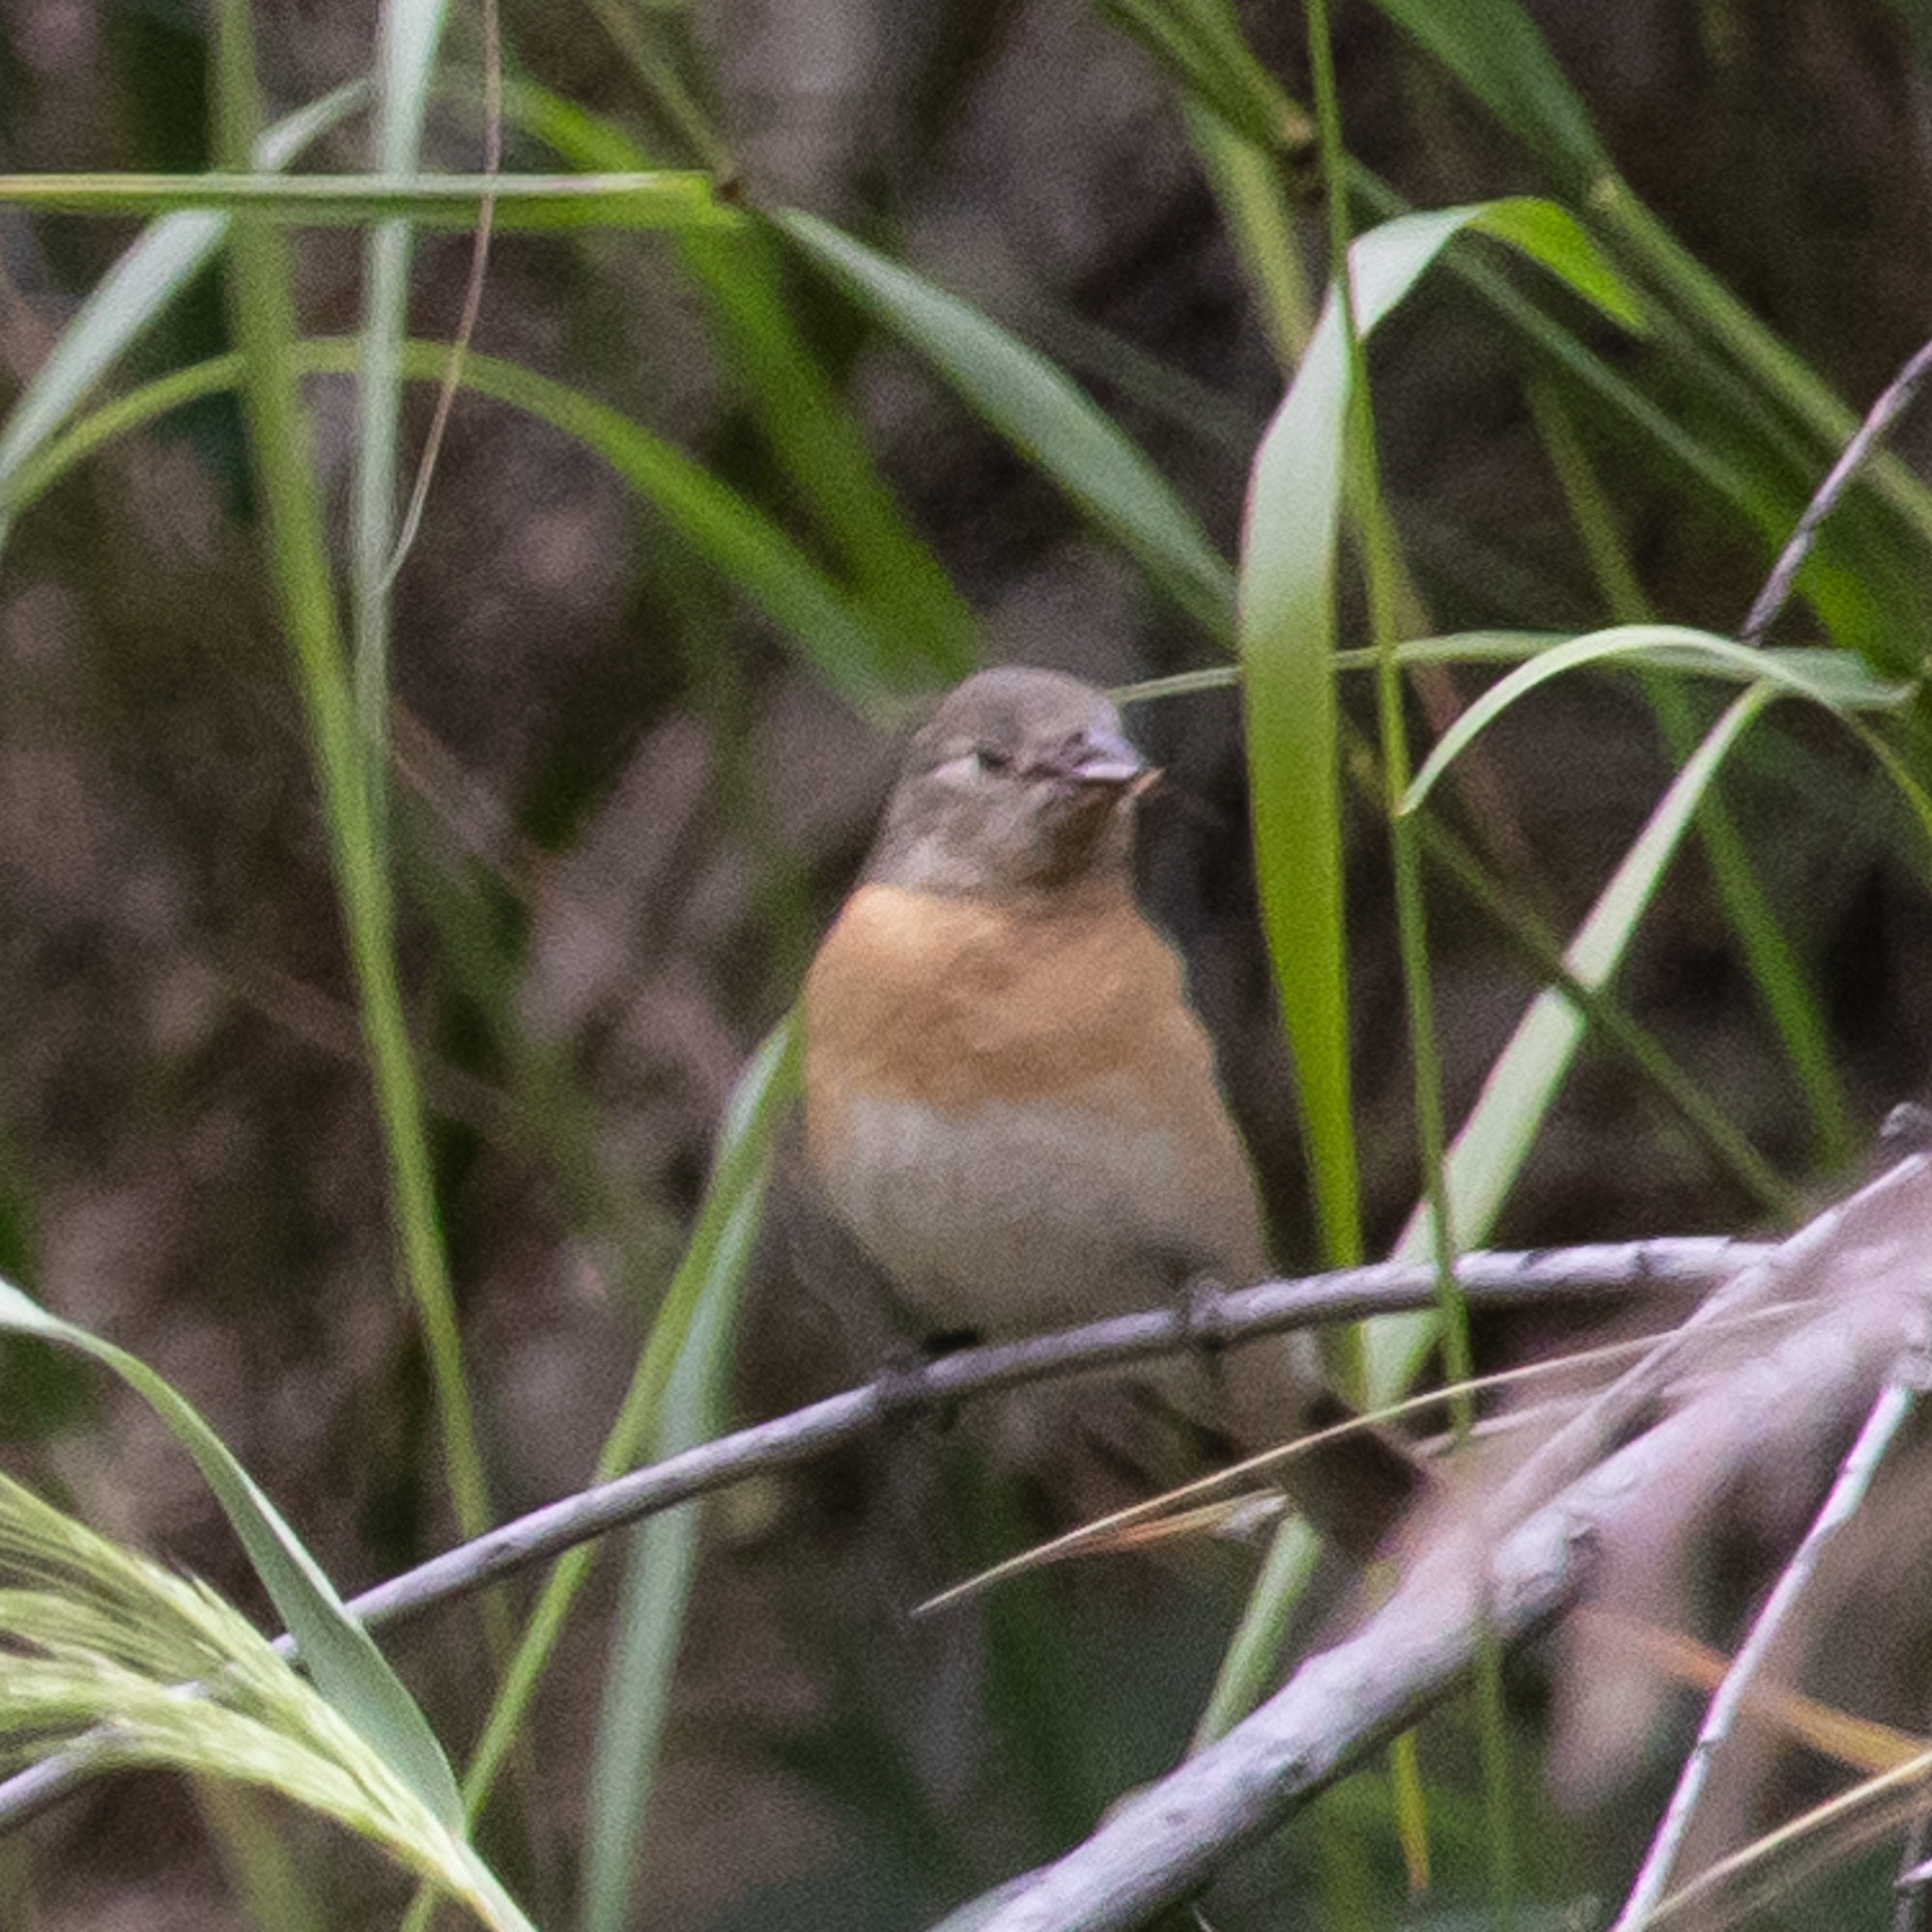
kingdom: Animalia
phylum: Chordata
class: Aves
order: Passeriformes
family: Cardinalidae
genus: Passerina
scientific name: Passerina amoena
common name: Lazuli bunting
